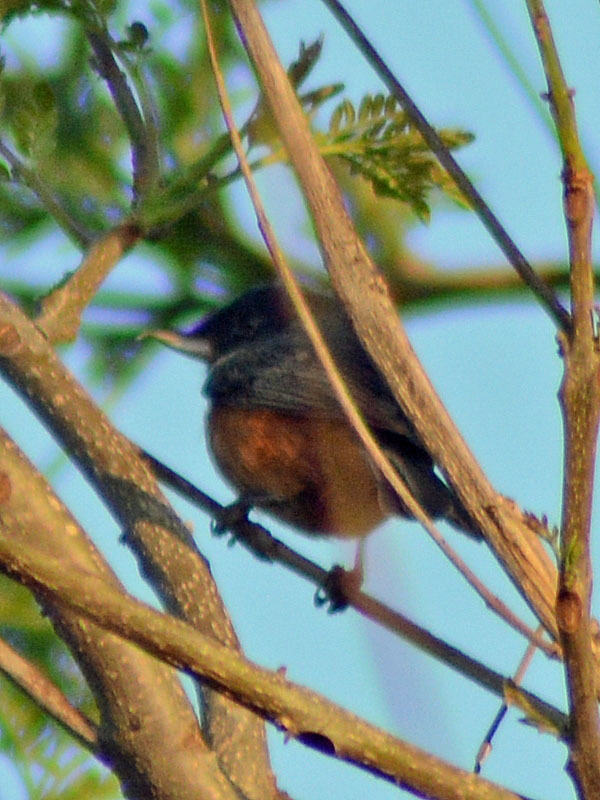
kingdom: Animalia
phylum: Chordata
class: Aves
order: Passeriformes
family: Thraupidae
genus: Diglossa
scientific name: Diglossa baritula
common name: Cinnamon-bellied flowerpiercer
